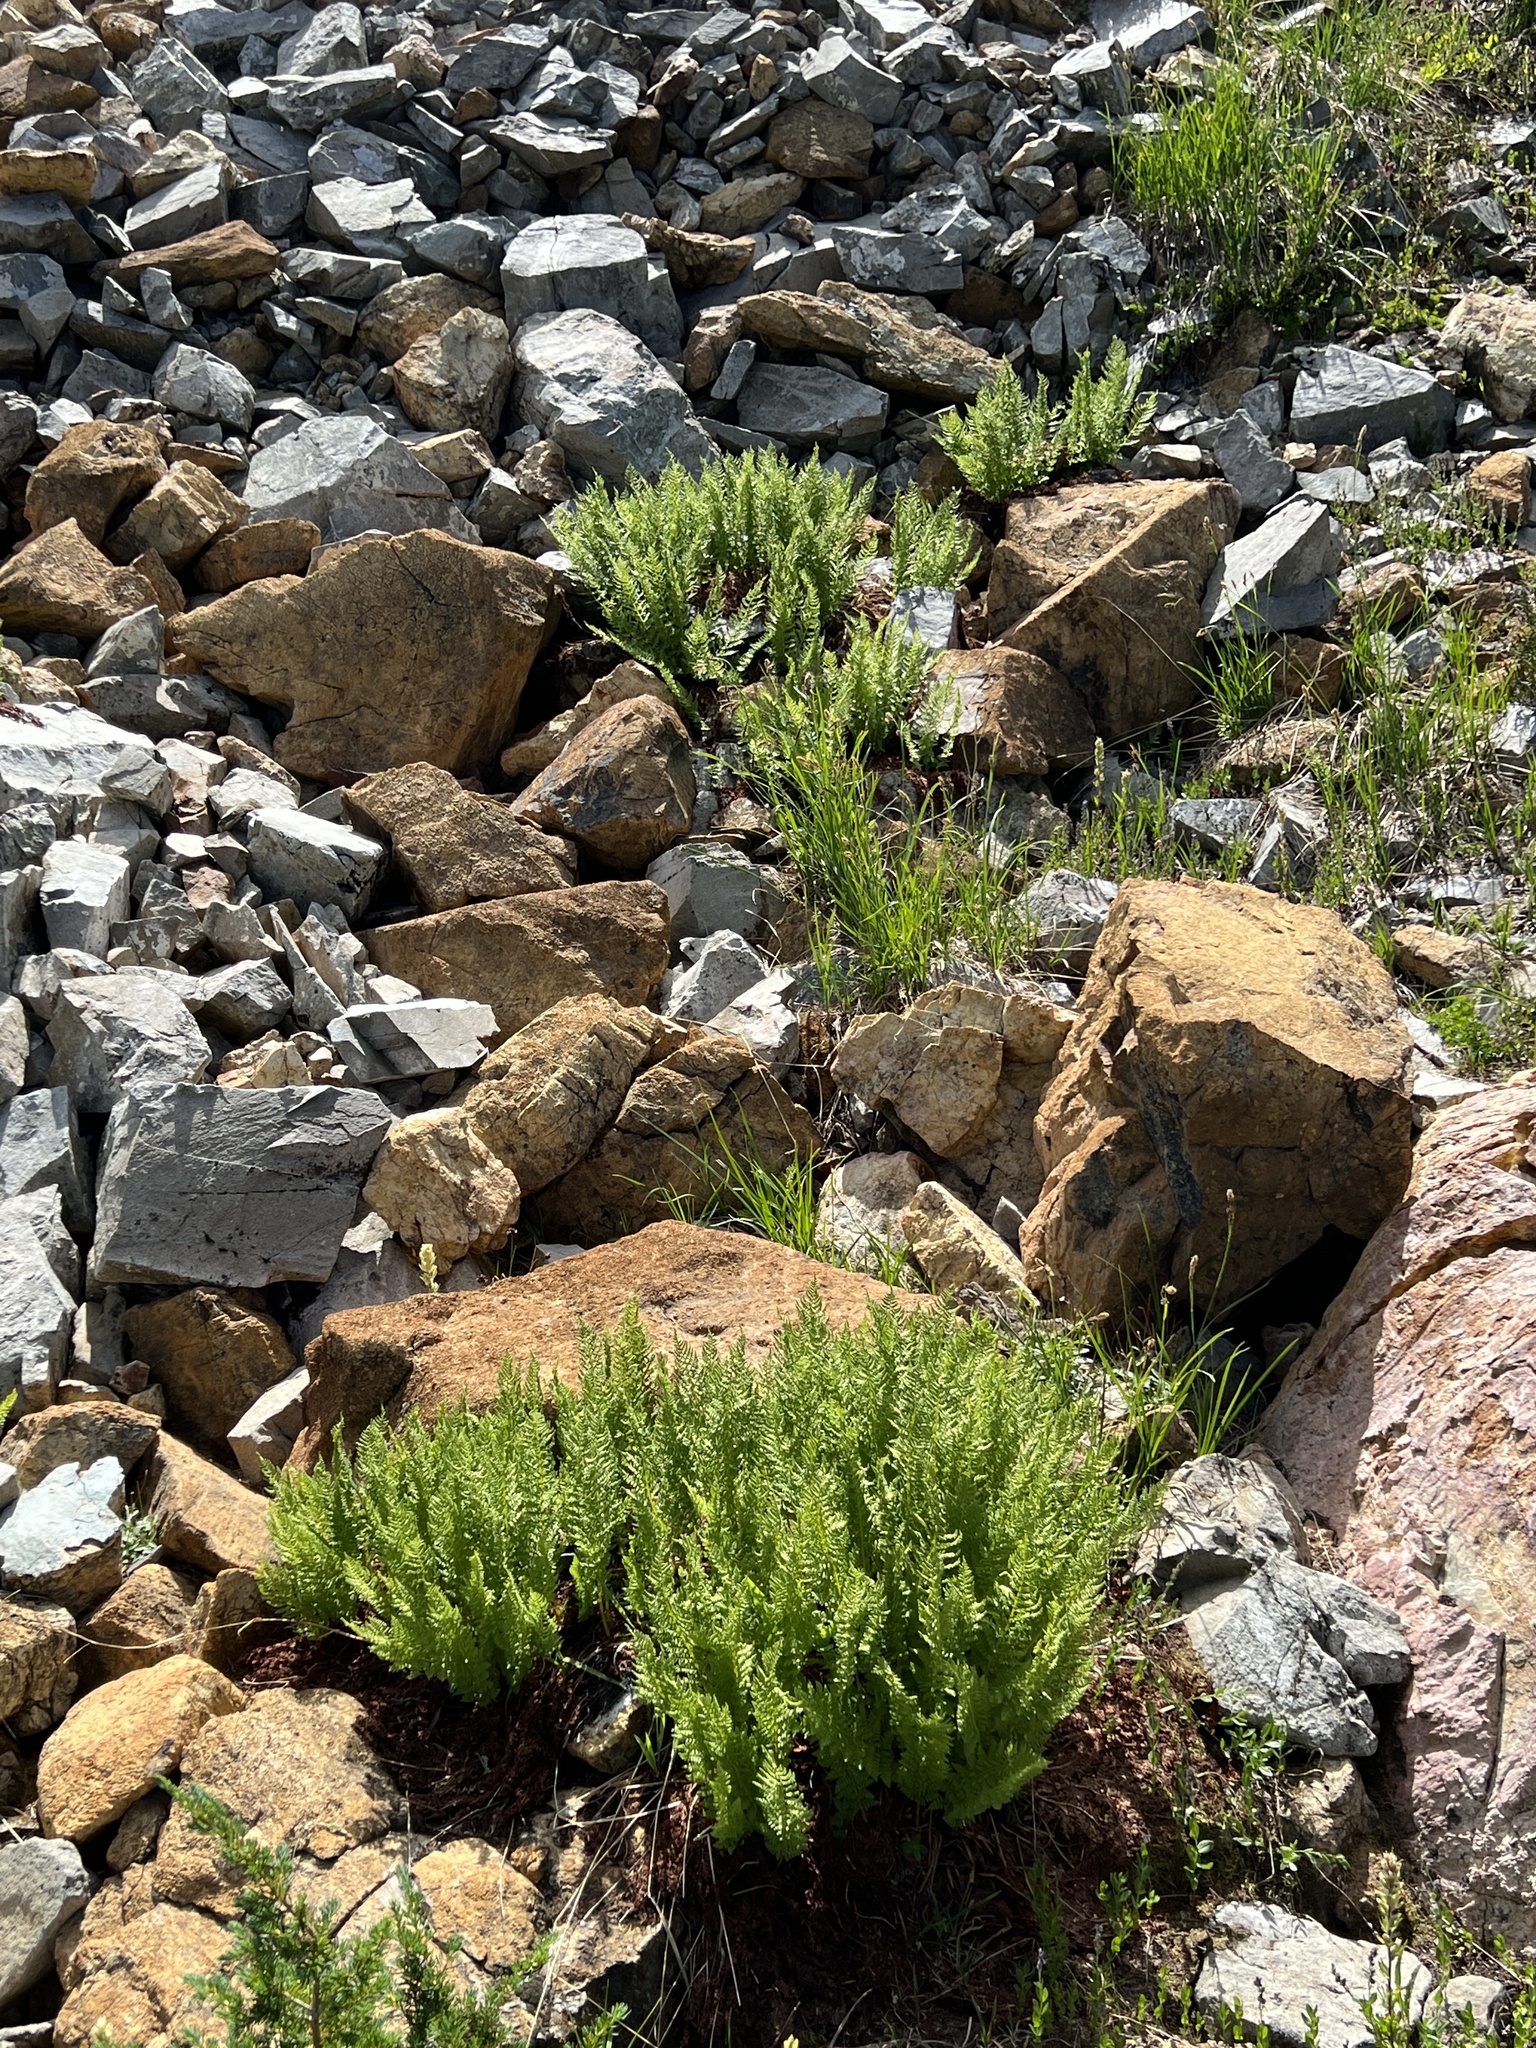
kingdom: Plantae
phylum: Tracheophyta
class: Polypodiopsida
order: Polypodiales
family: Athyriaceae
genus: Athyrium
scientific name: Athyrium americanum
